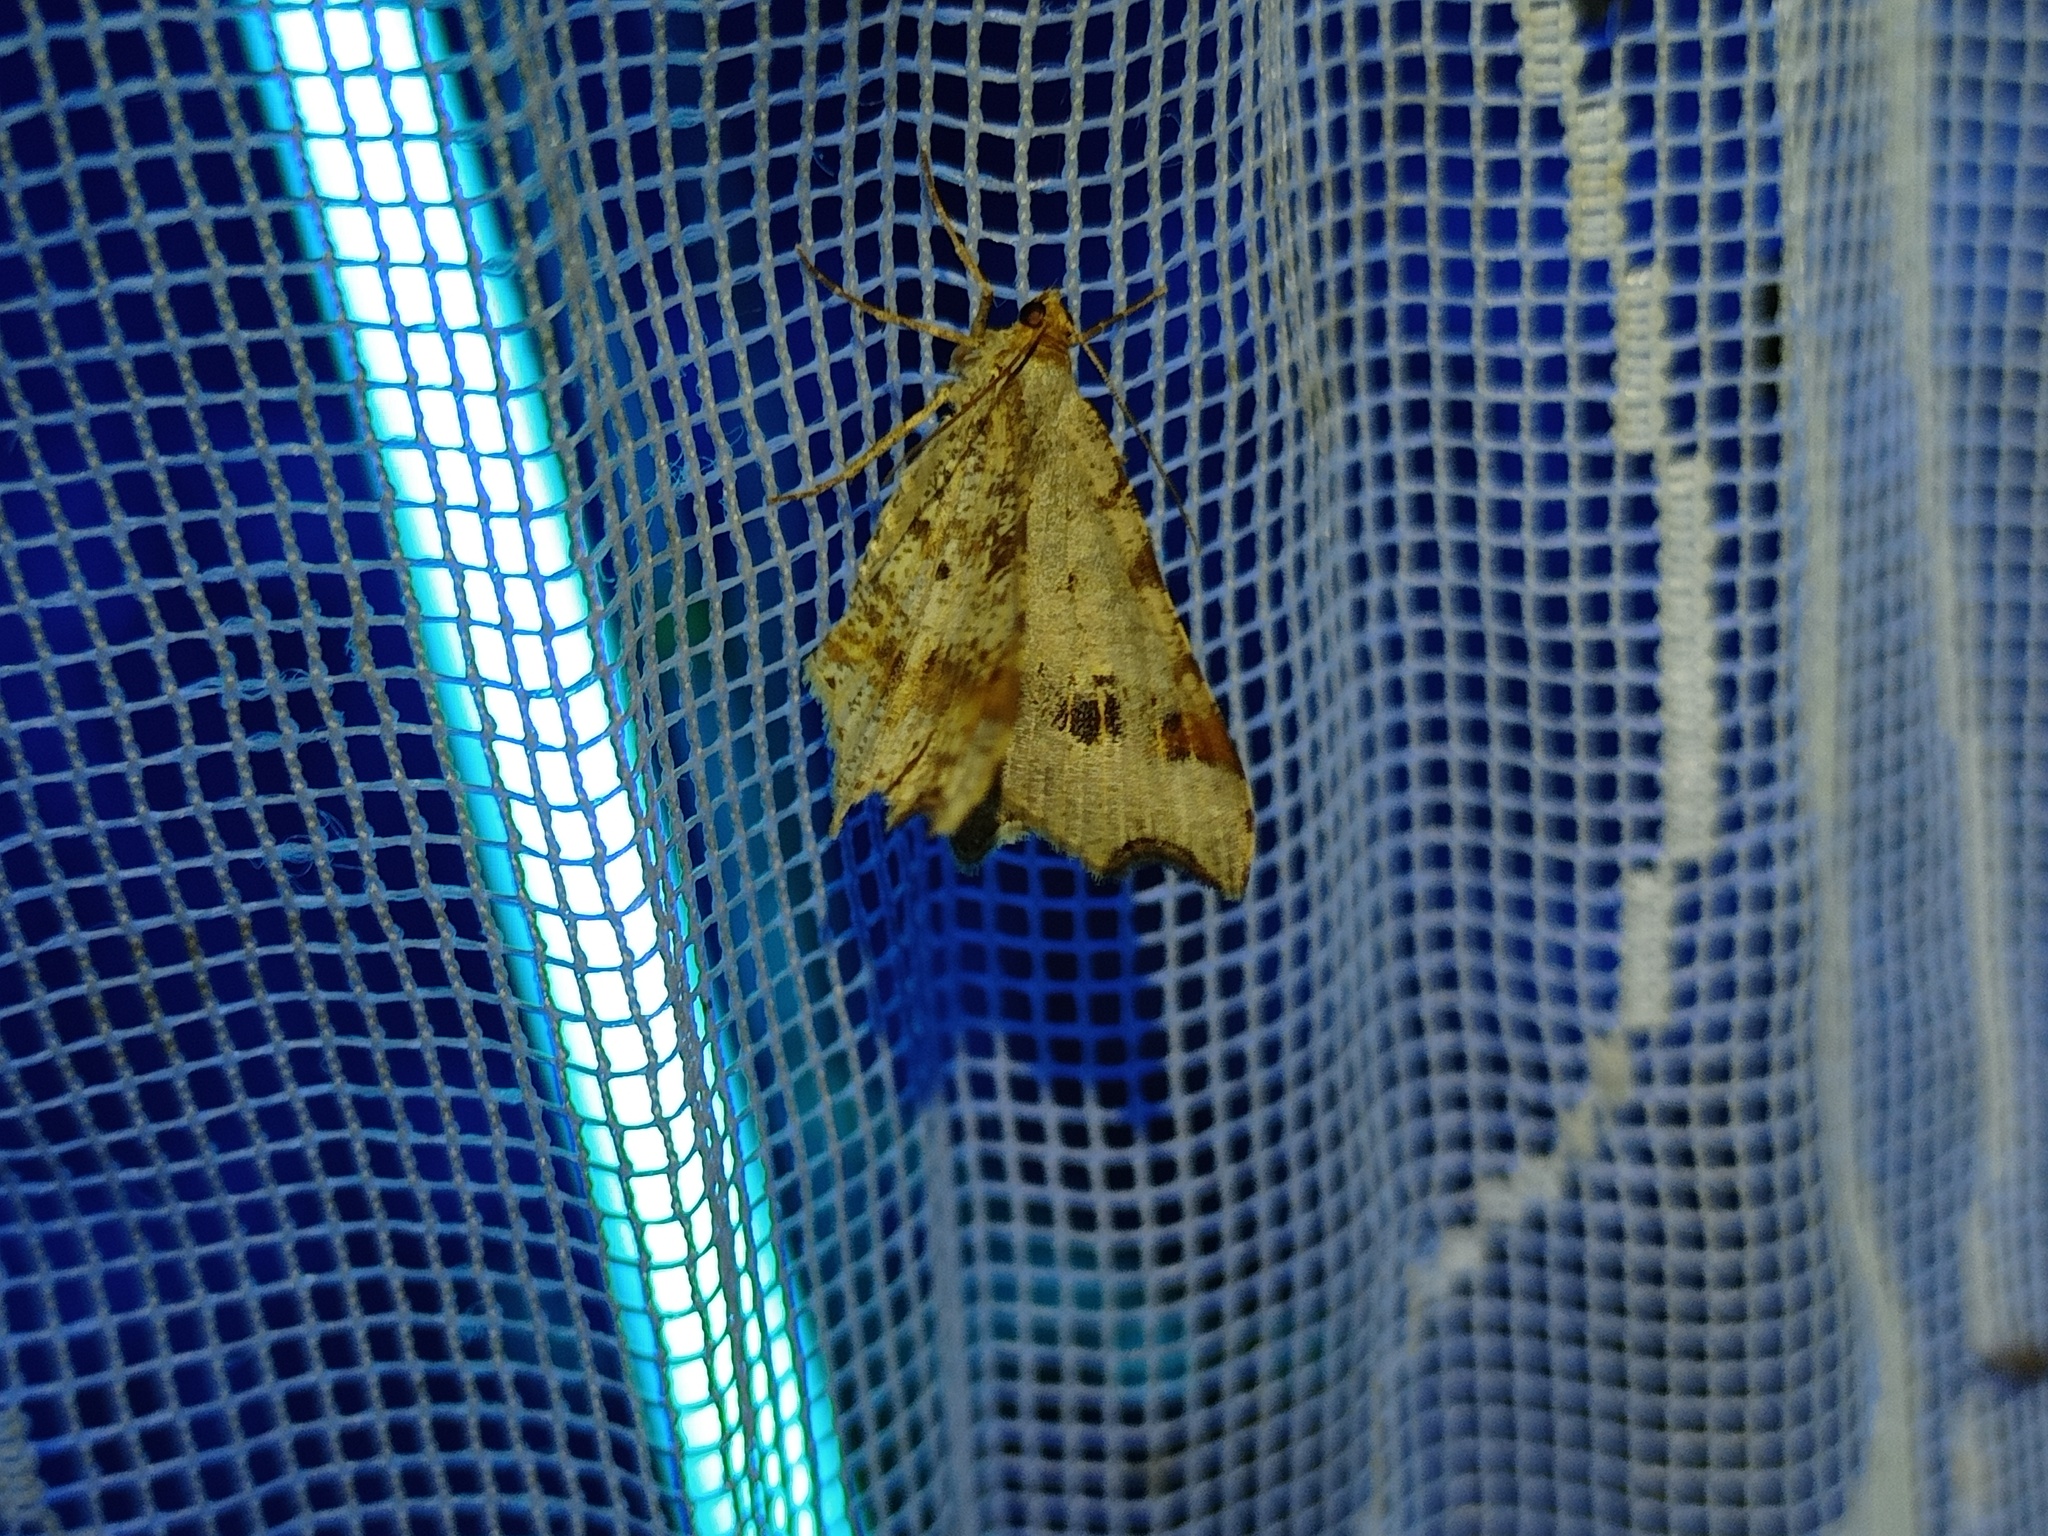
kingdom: Animalia
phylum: Arthropoda
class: Insecta
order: Lepidoptera
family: Geometridae
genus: Macaria
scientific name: Macaria alternata
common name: Sharp-angled peacock
